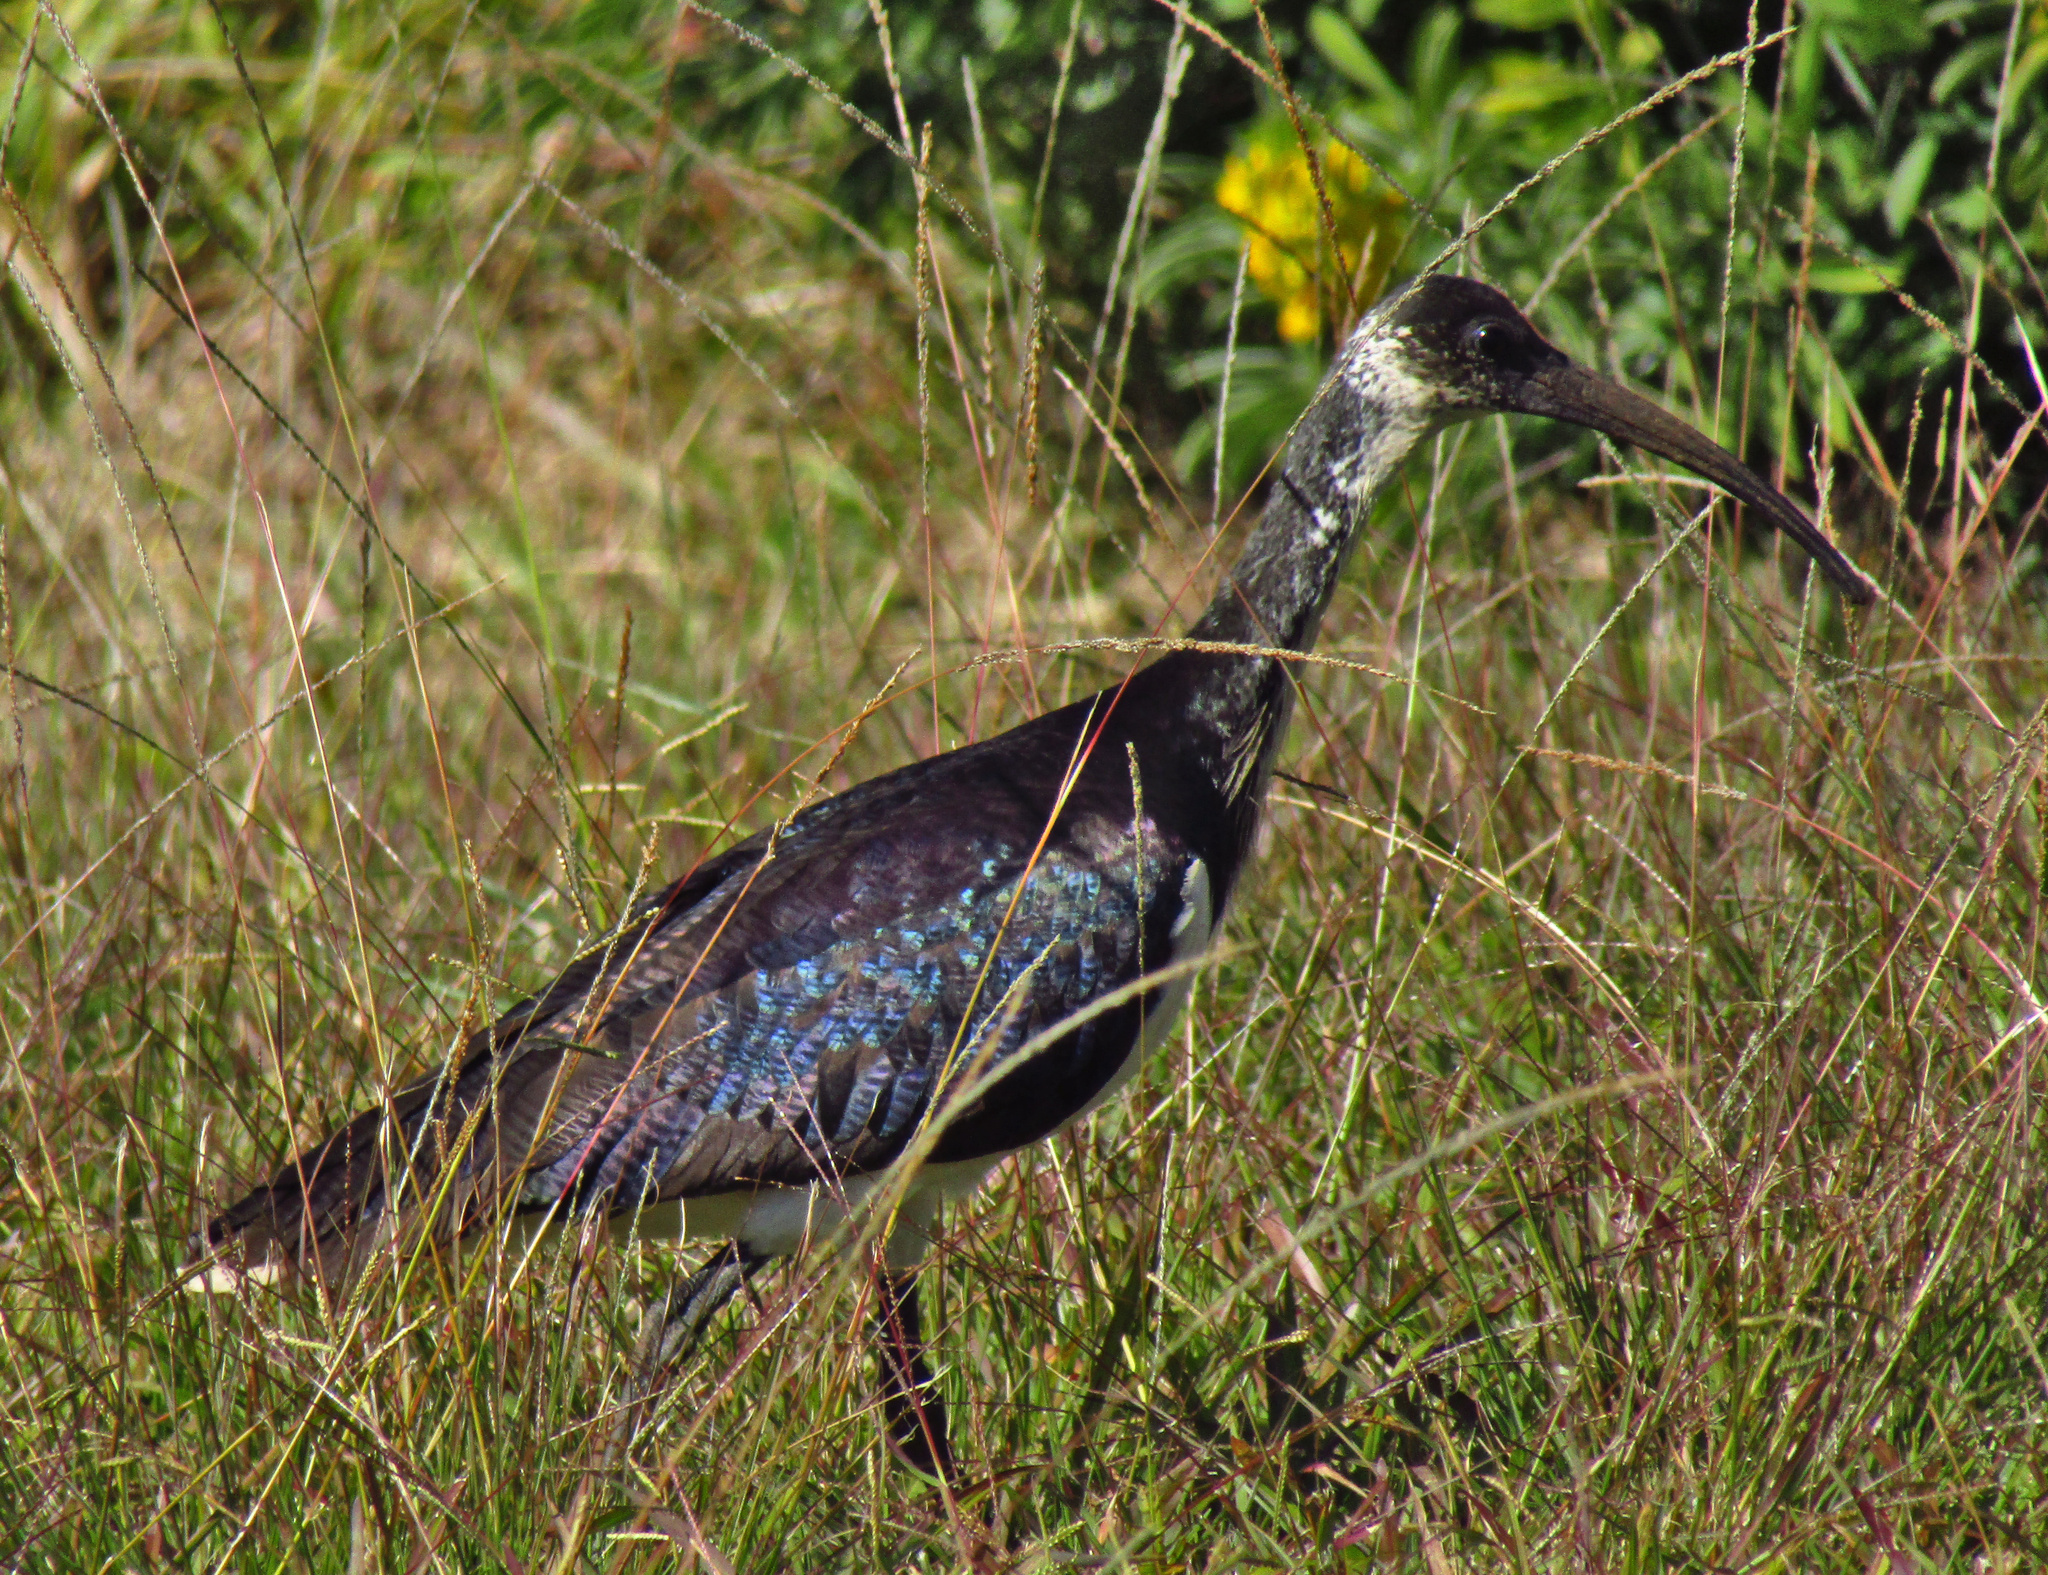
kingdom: Animalia
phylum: Chordata
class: Aves
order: Pelecaniformes
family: Threskiornithidae
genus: Threskiornis
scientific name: Threskiornis spinicollis
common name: Straw-necked ibis
